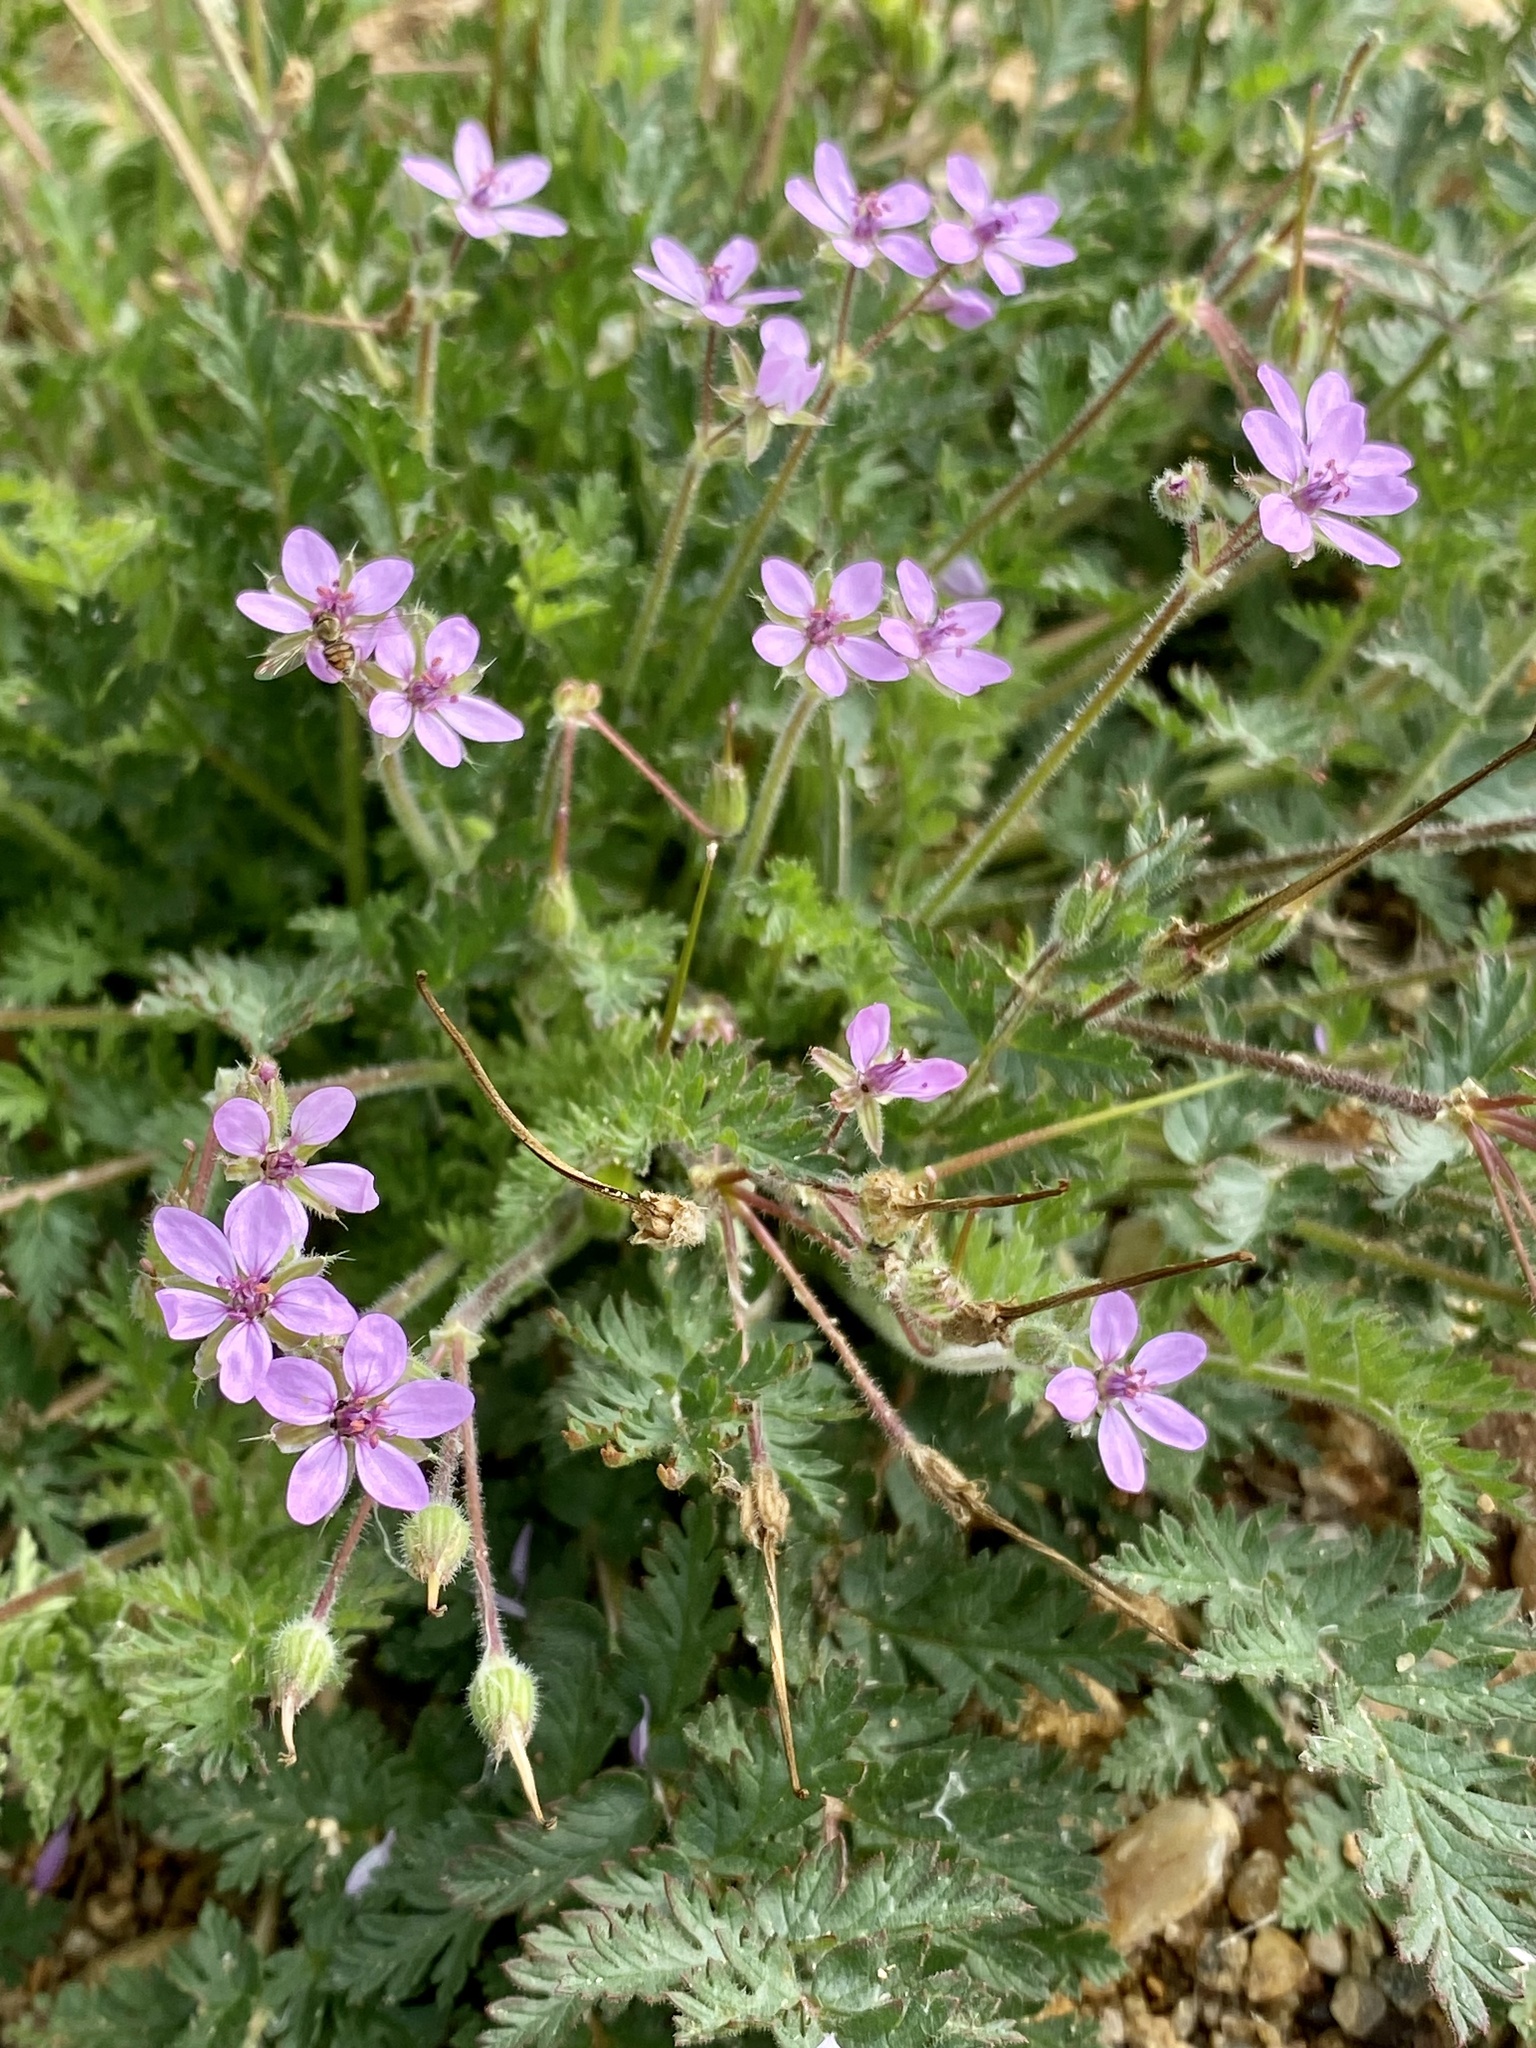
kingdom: Plantae
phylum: Tracheophyta
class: Magnoliopsida
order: Geraniales
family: Geraniaceae
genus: Erodium
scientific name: Erodium cicutarium
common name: Common stork's-bill
